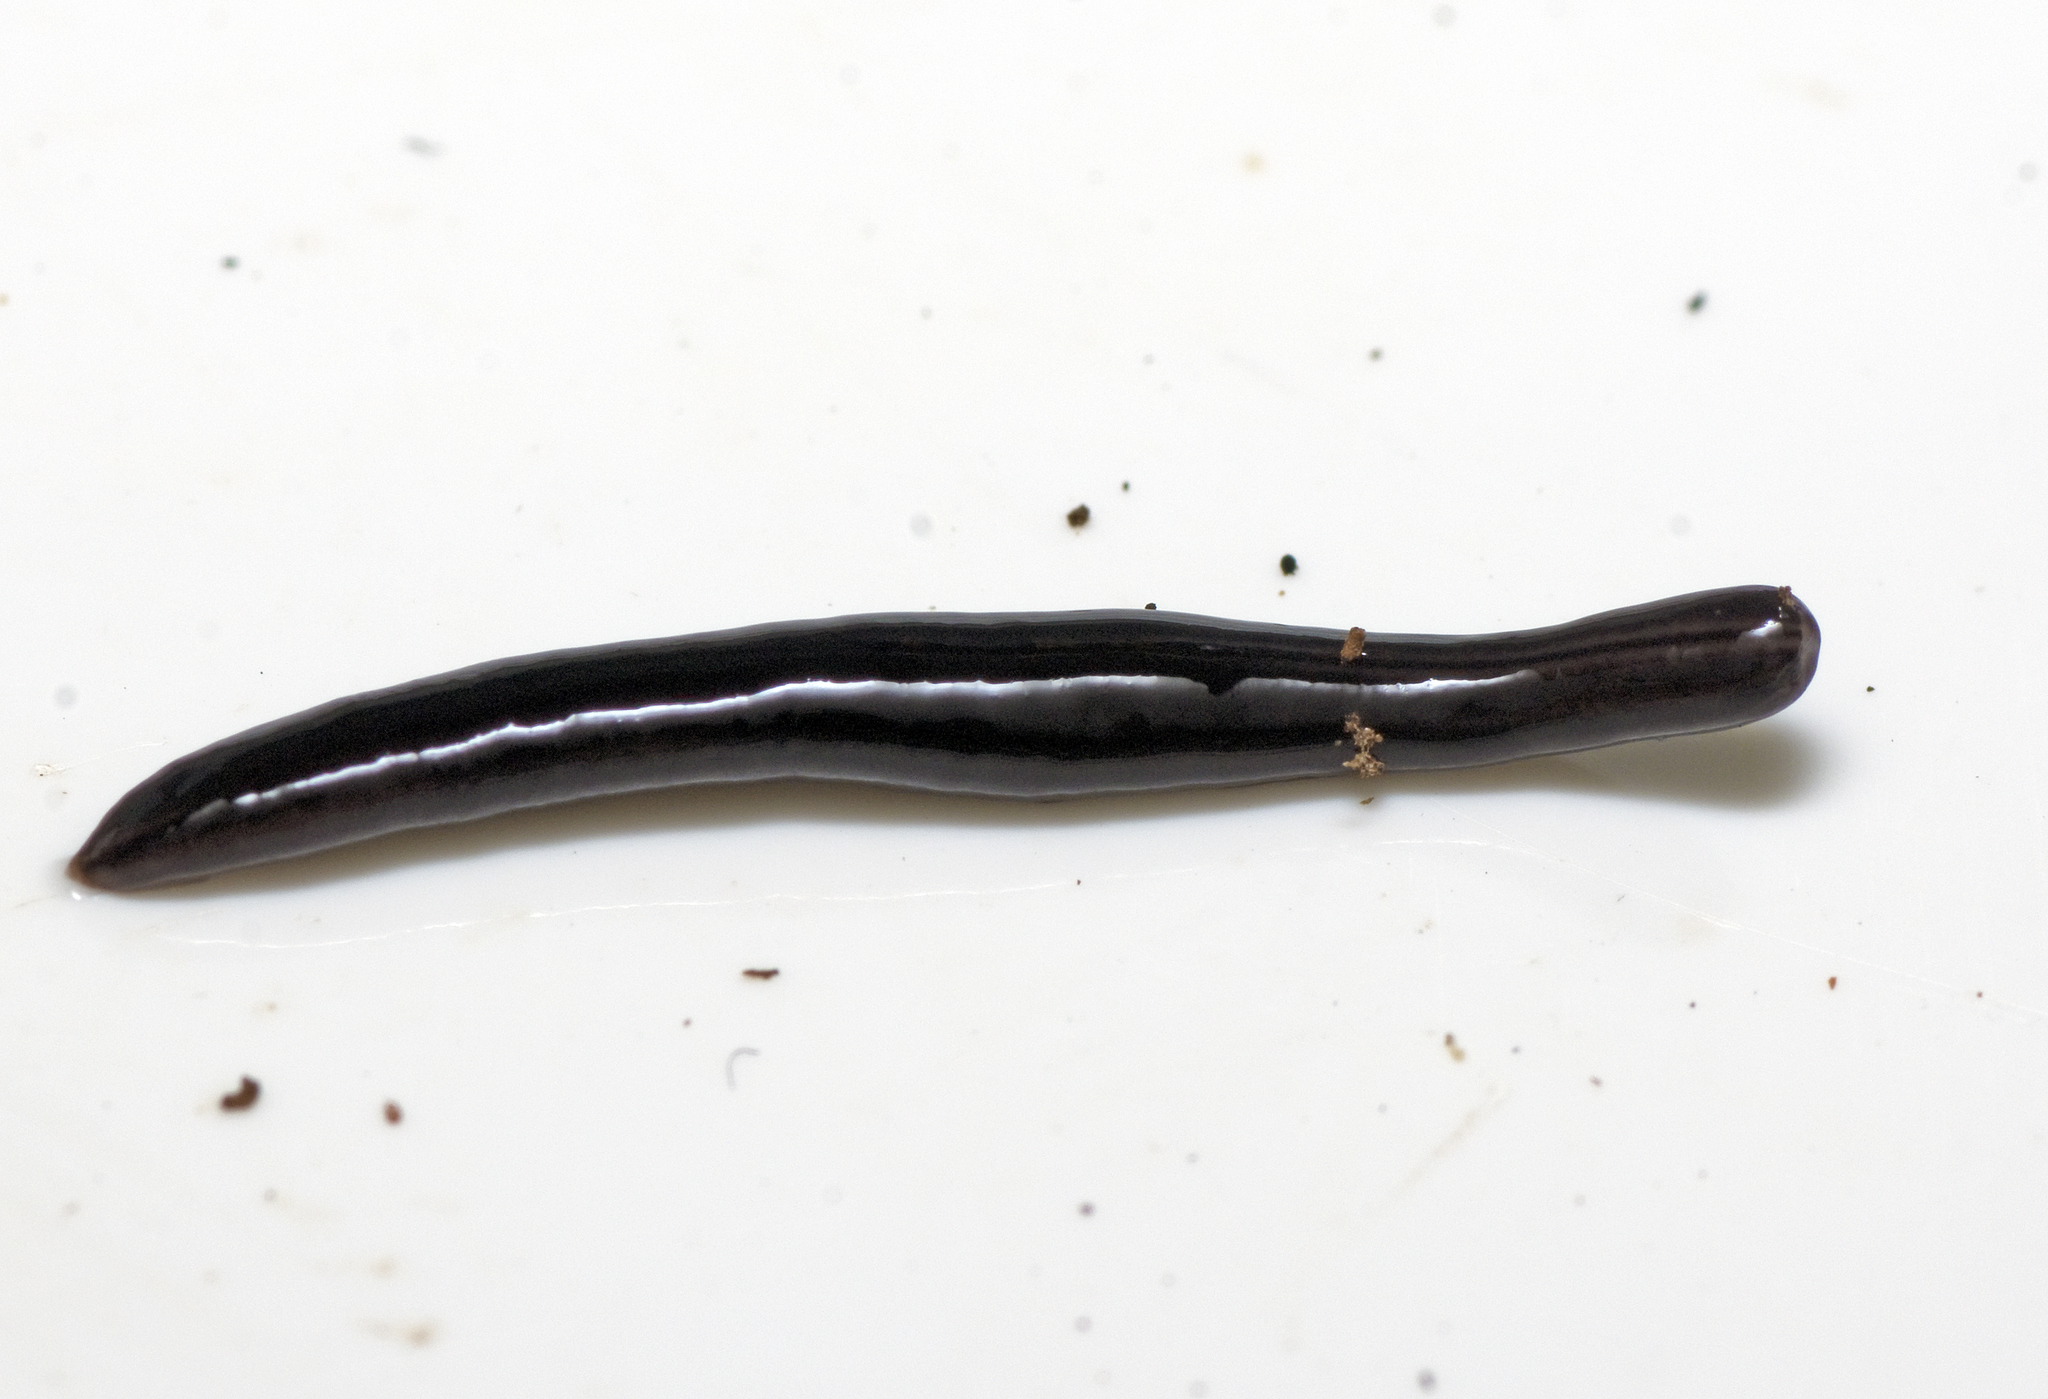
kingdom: Animalia
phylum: Platyhelminthes
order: Tricladida
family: Geoplanidae
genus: Parakontikia
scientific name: Parakontikia ventrolineata
